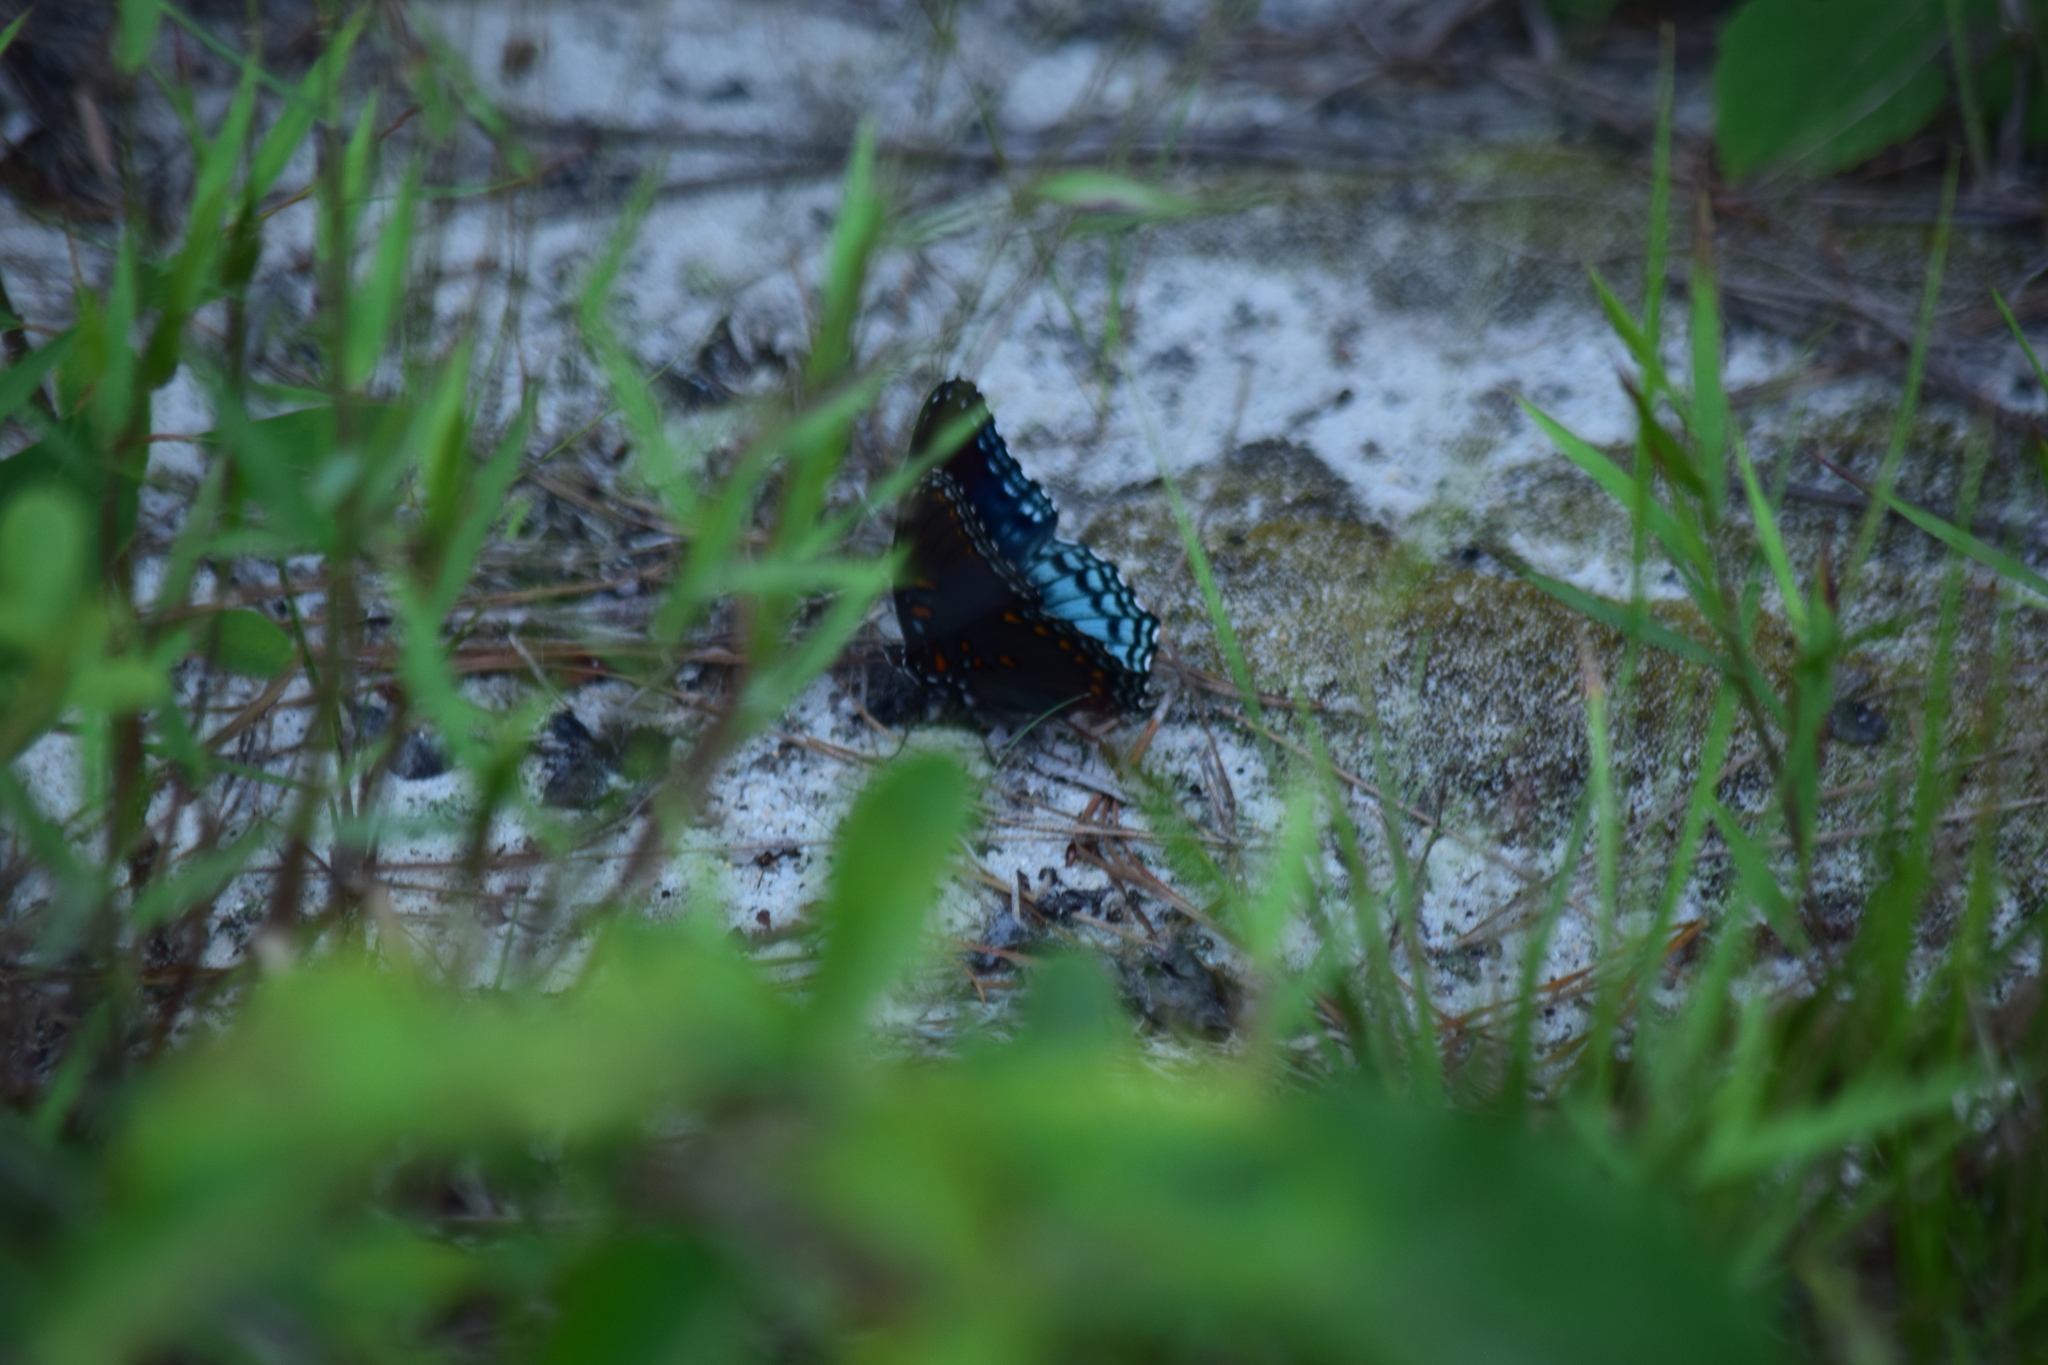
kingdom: Animalia
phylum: Arthropoda
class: Insecta
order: Lepidoptera
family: Nymphalidae
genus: Limenitis
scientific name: Limenitis arthemis
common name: Red-spotted admiral
